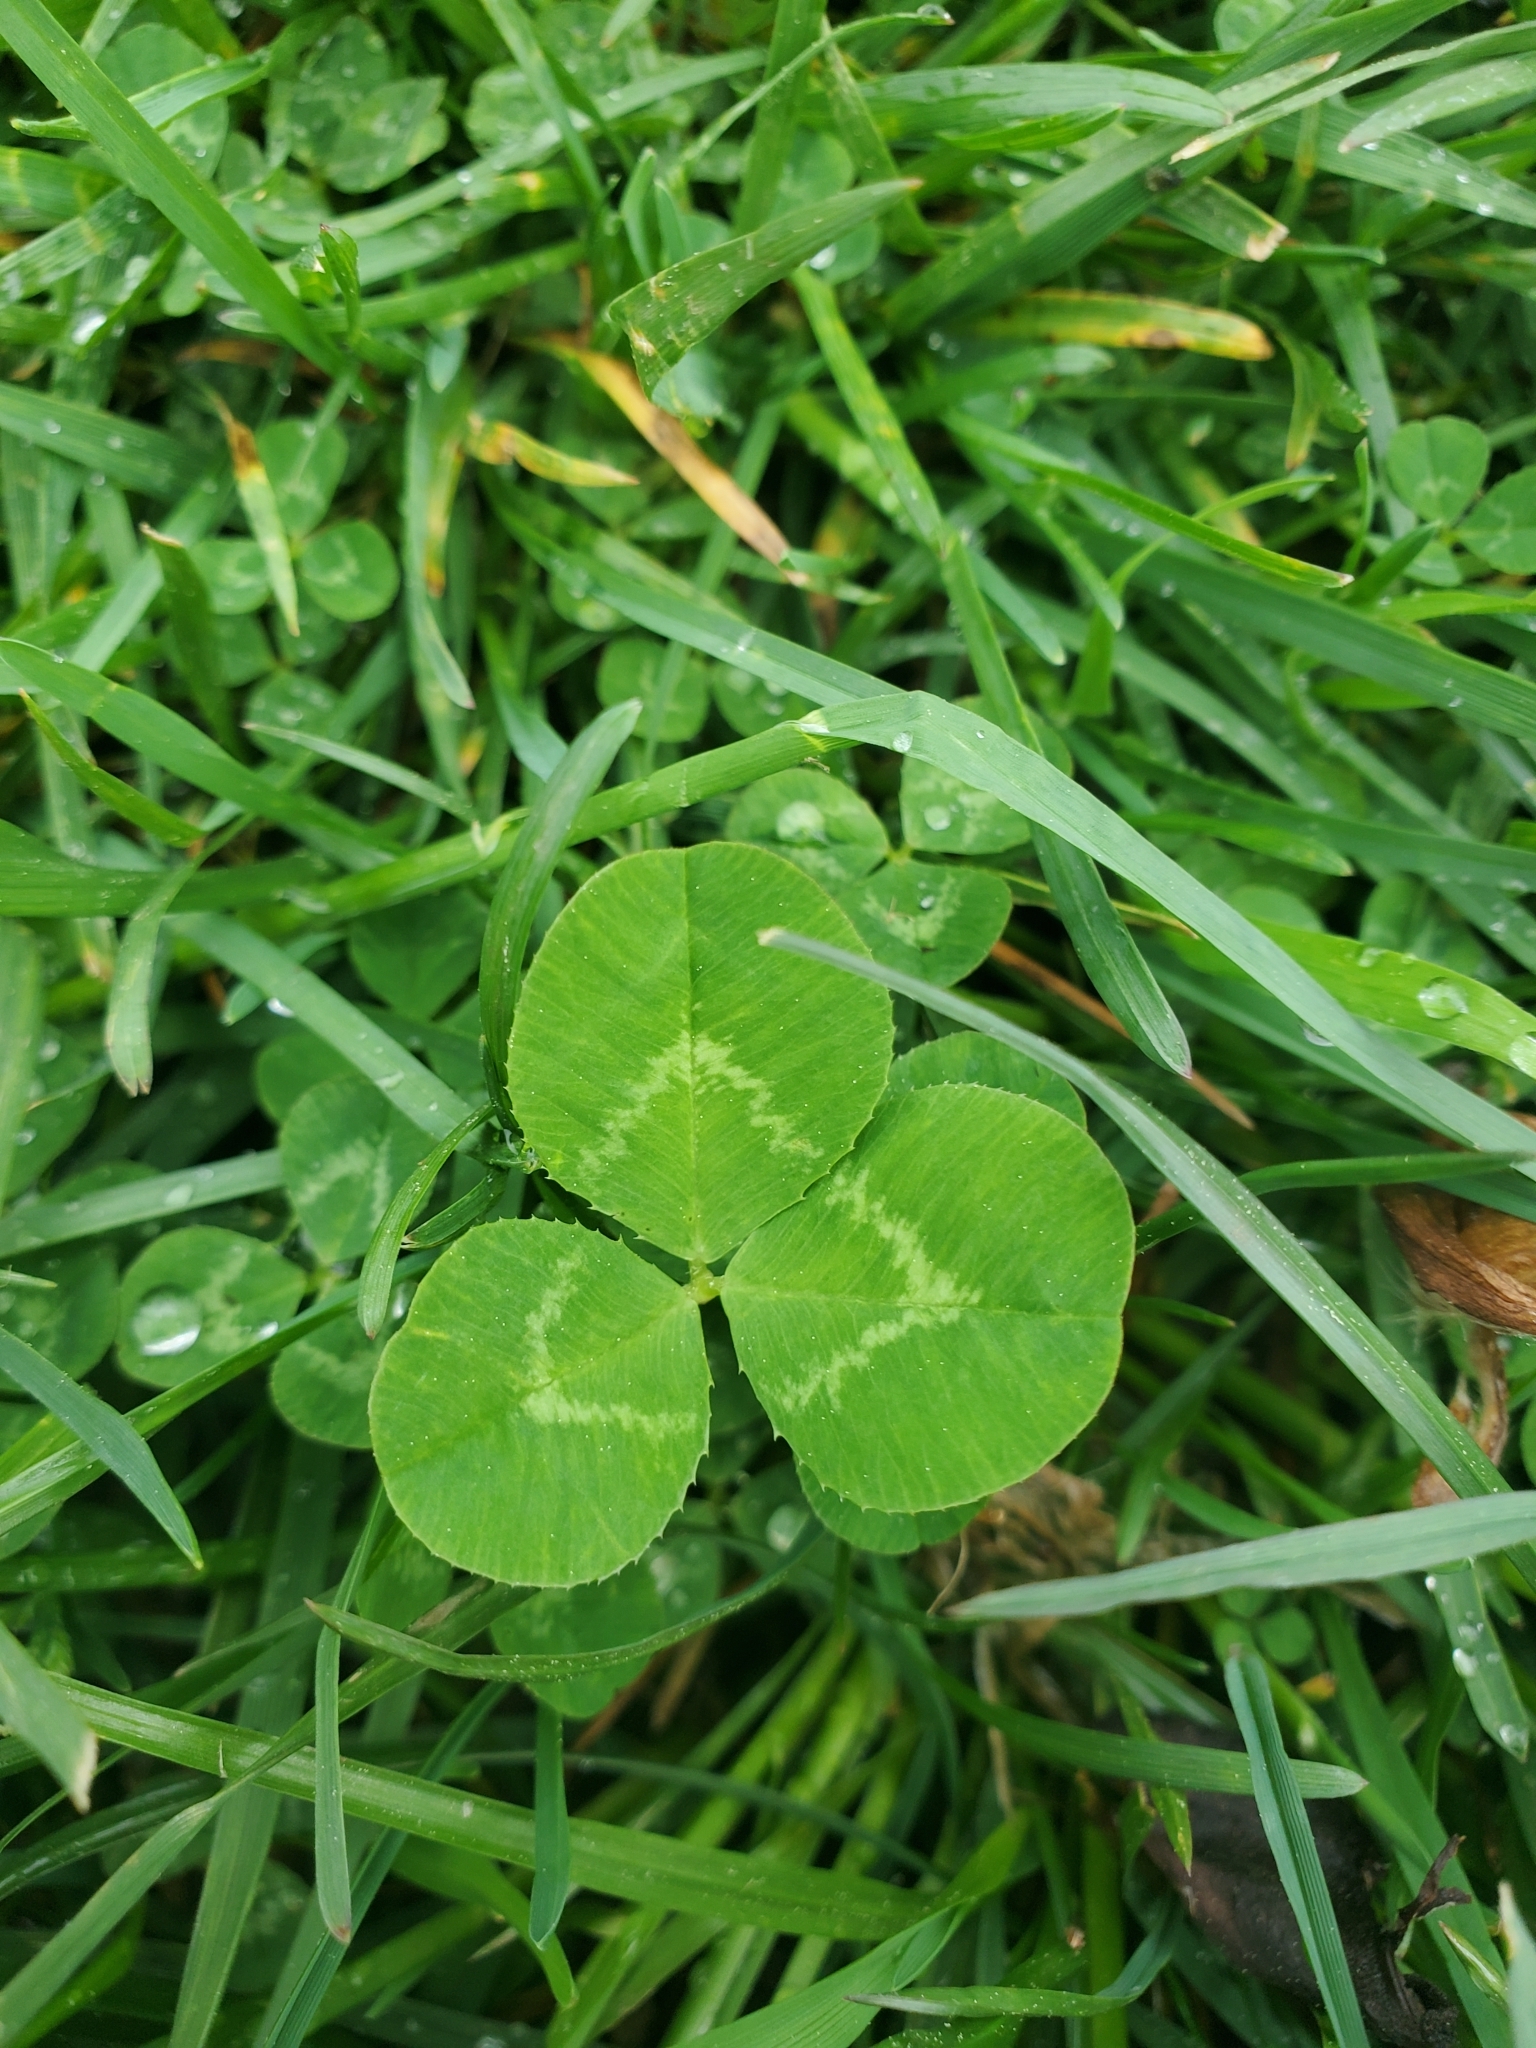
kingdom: Plantae
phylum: Tracheophyta
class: Magnoliopsida
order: Fabales
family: Fabaceae
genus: Trifolium
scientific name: Trifolium repens
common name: White clover
